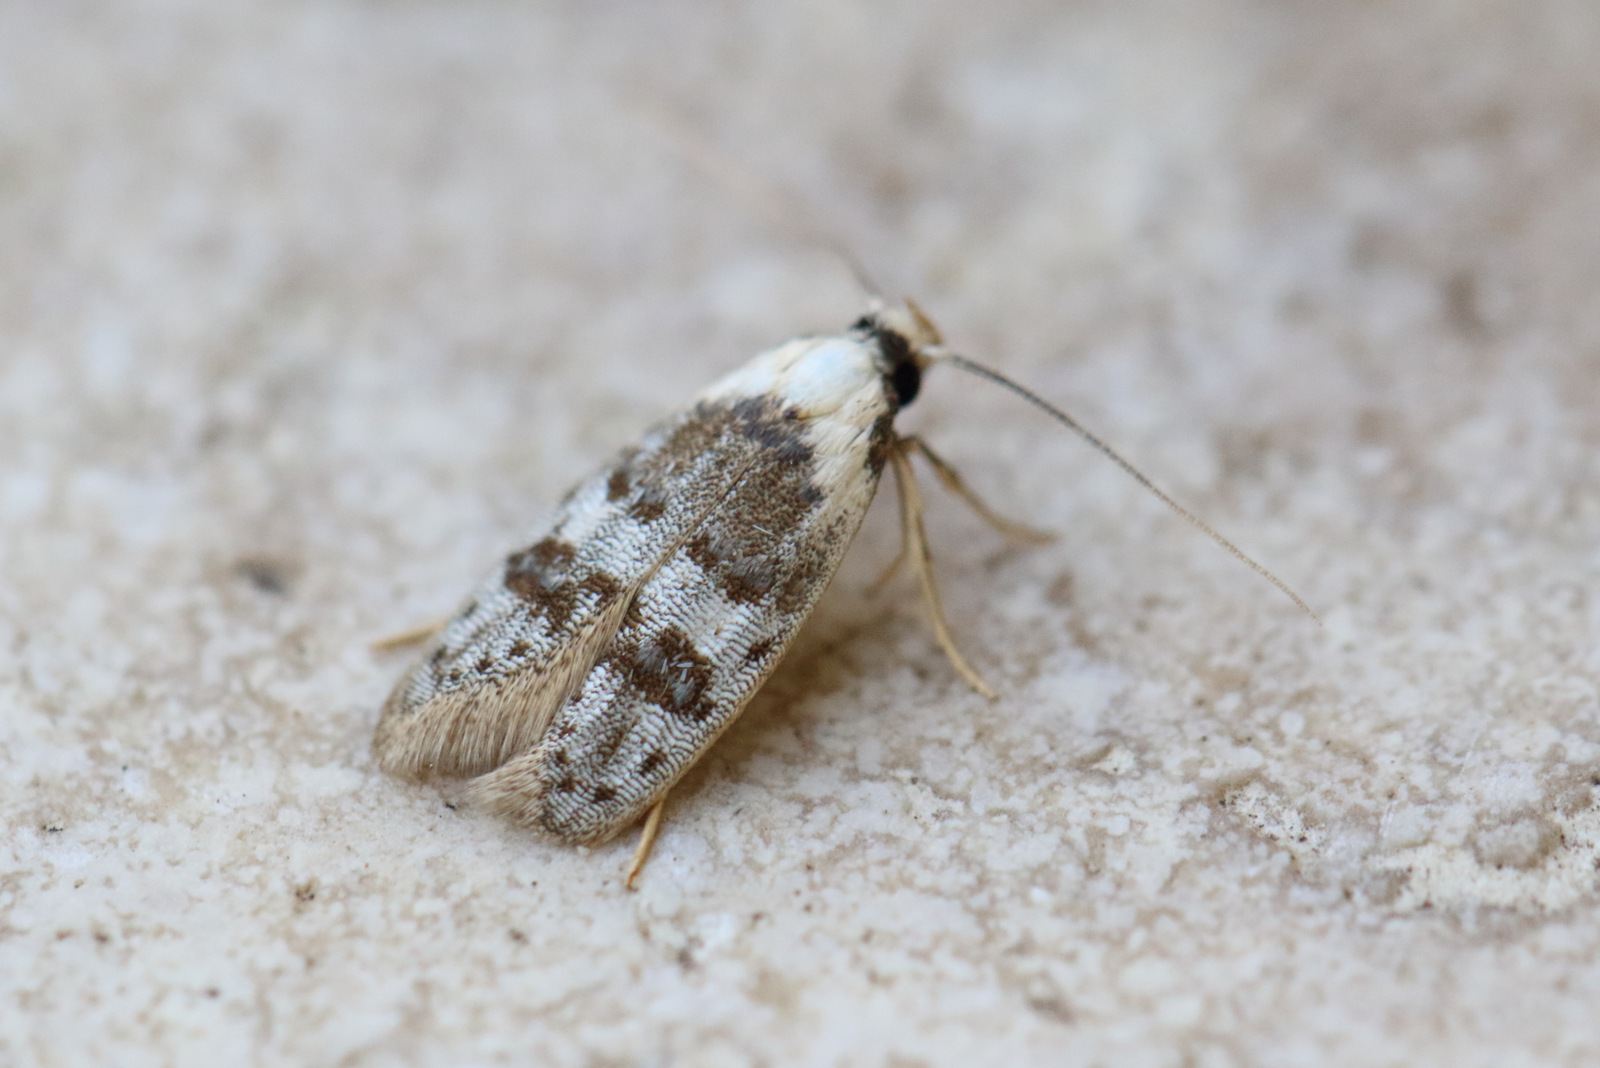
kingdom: Animalia
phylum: Arthropoda
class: Insecta
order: Lepidoptera
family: Oecophoridae
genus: Scatochresis
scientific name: Scatochresis innumera
